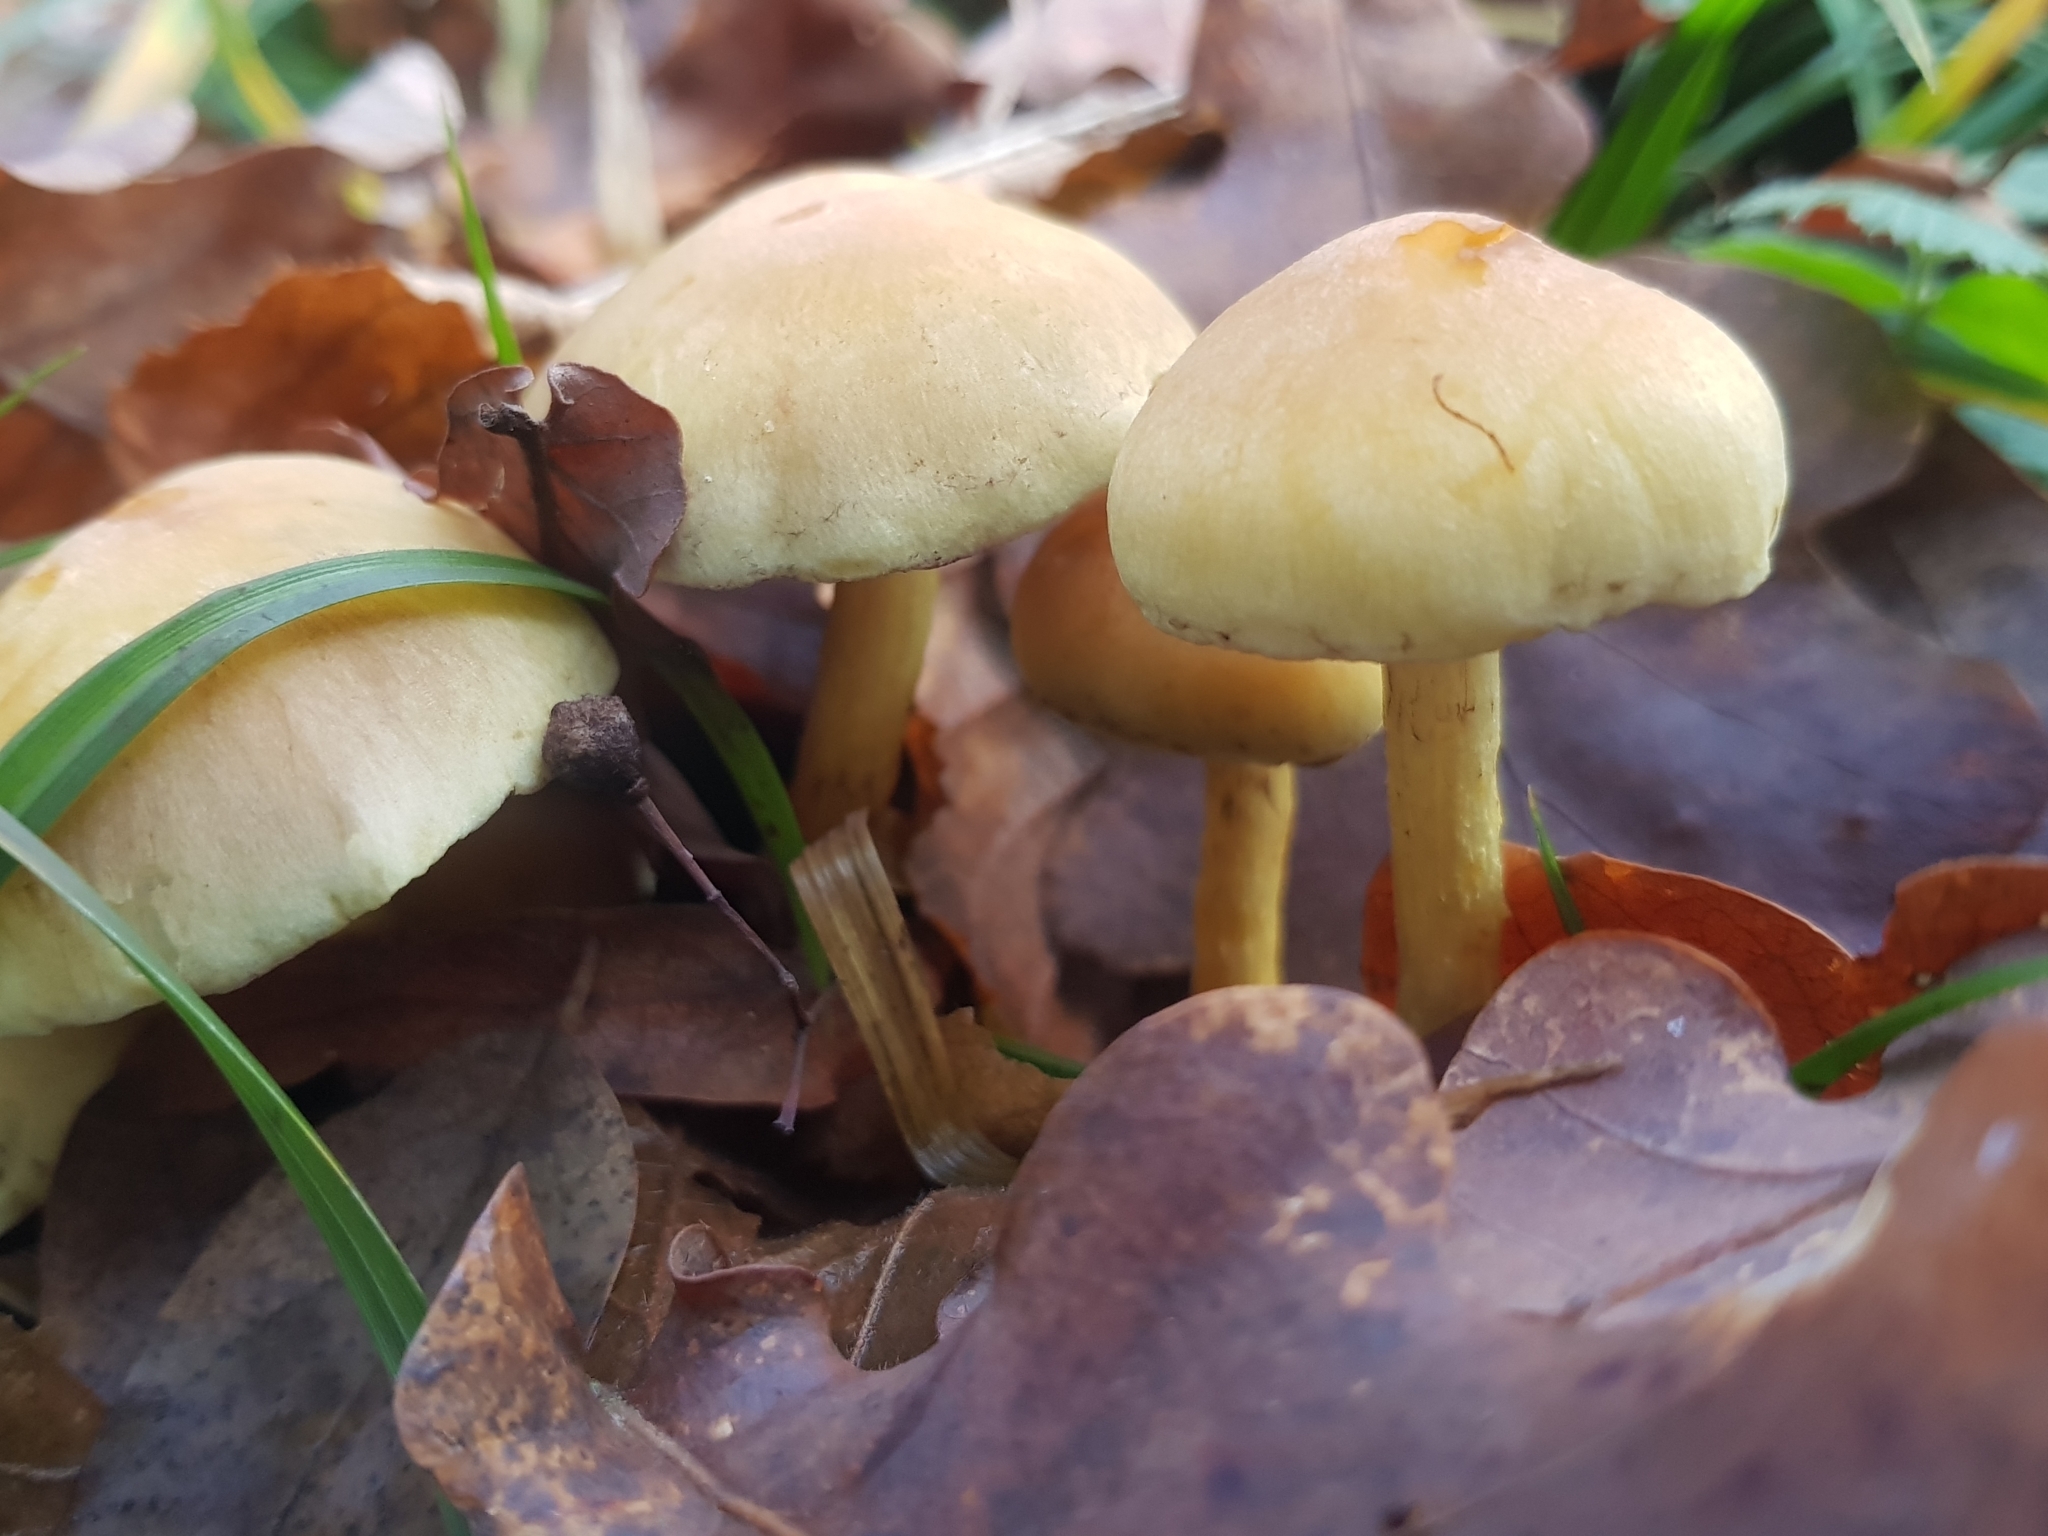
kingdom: Fungi
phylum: Basidiomycota
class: Agaricomycetes
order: Agaricales
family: Strophariaceae
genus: Hypholoma
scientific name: Hypholoma fasciculare
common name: Sulphur tuft
